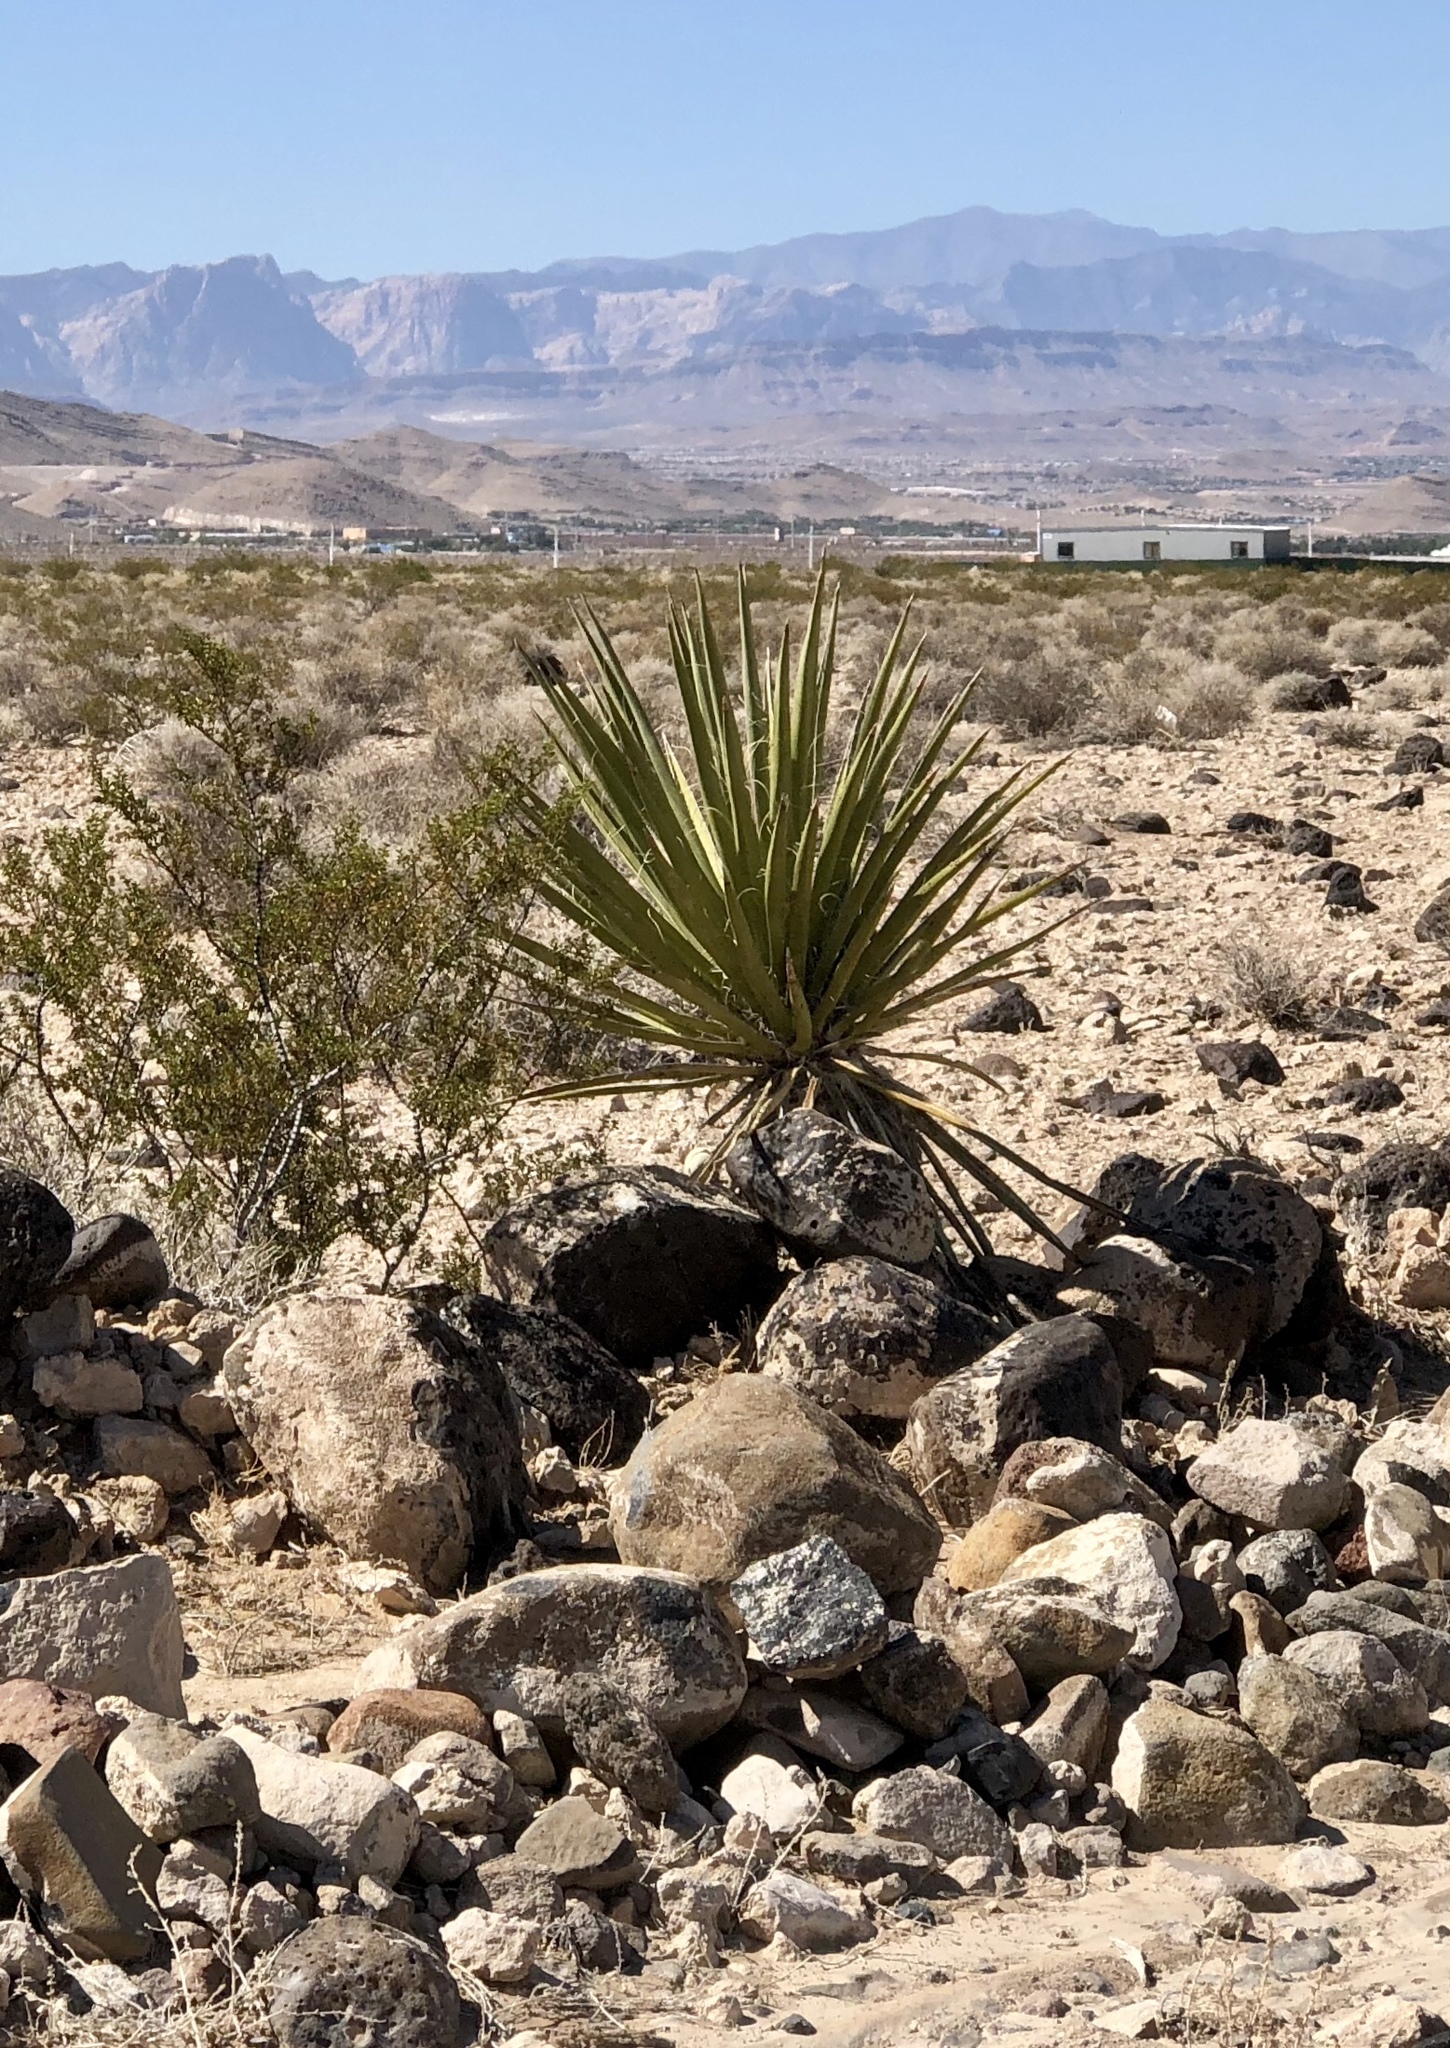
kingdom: Plantae
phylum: Tracheophyta
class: Liliopsida
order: Asparagales
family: Asparagaceae
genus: Yucca
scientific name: Yucca schidigera
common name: Mojave yucca
